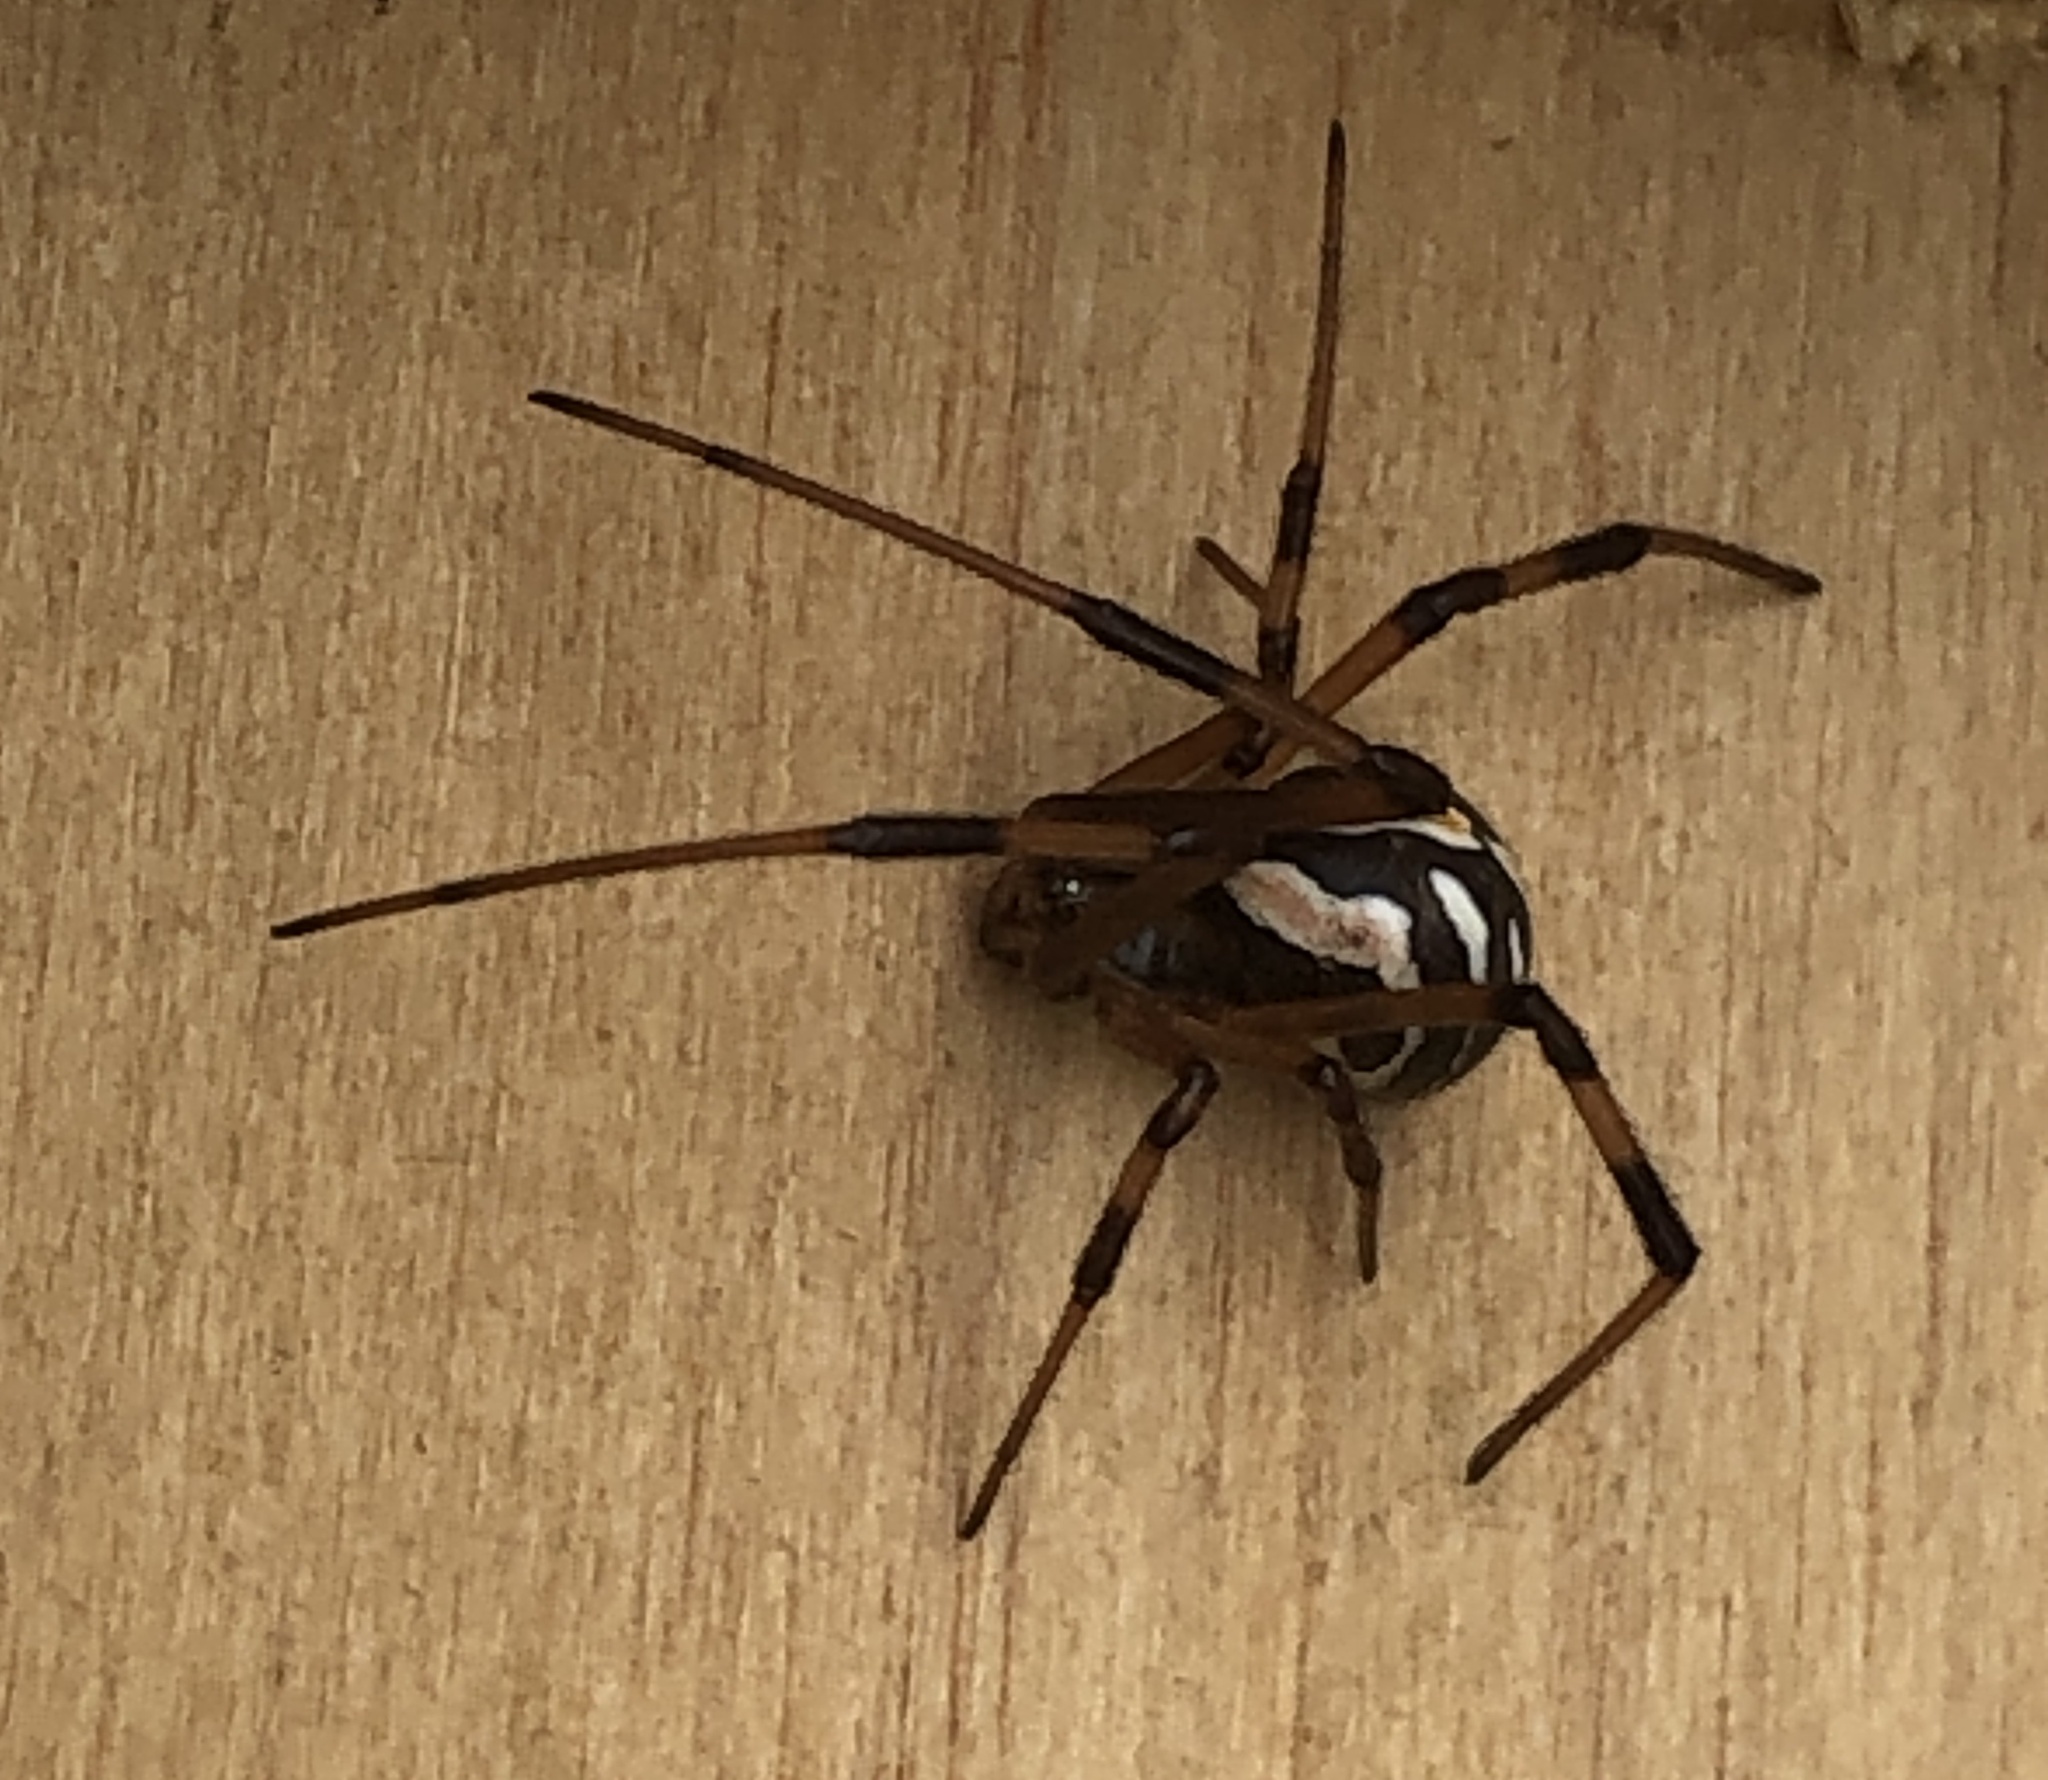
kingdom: Animalia
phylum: Arthropoda
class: Arachnida
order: Araneae
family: Theridiidae
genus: Latrodectus
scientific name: Latrodectus hesperus
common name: Western black widow
